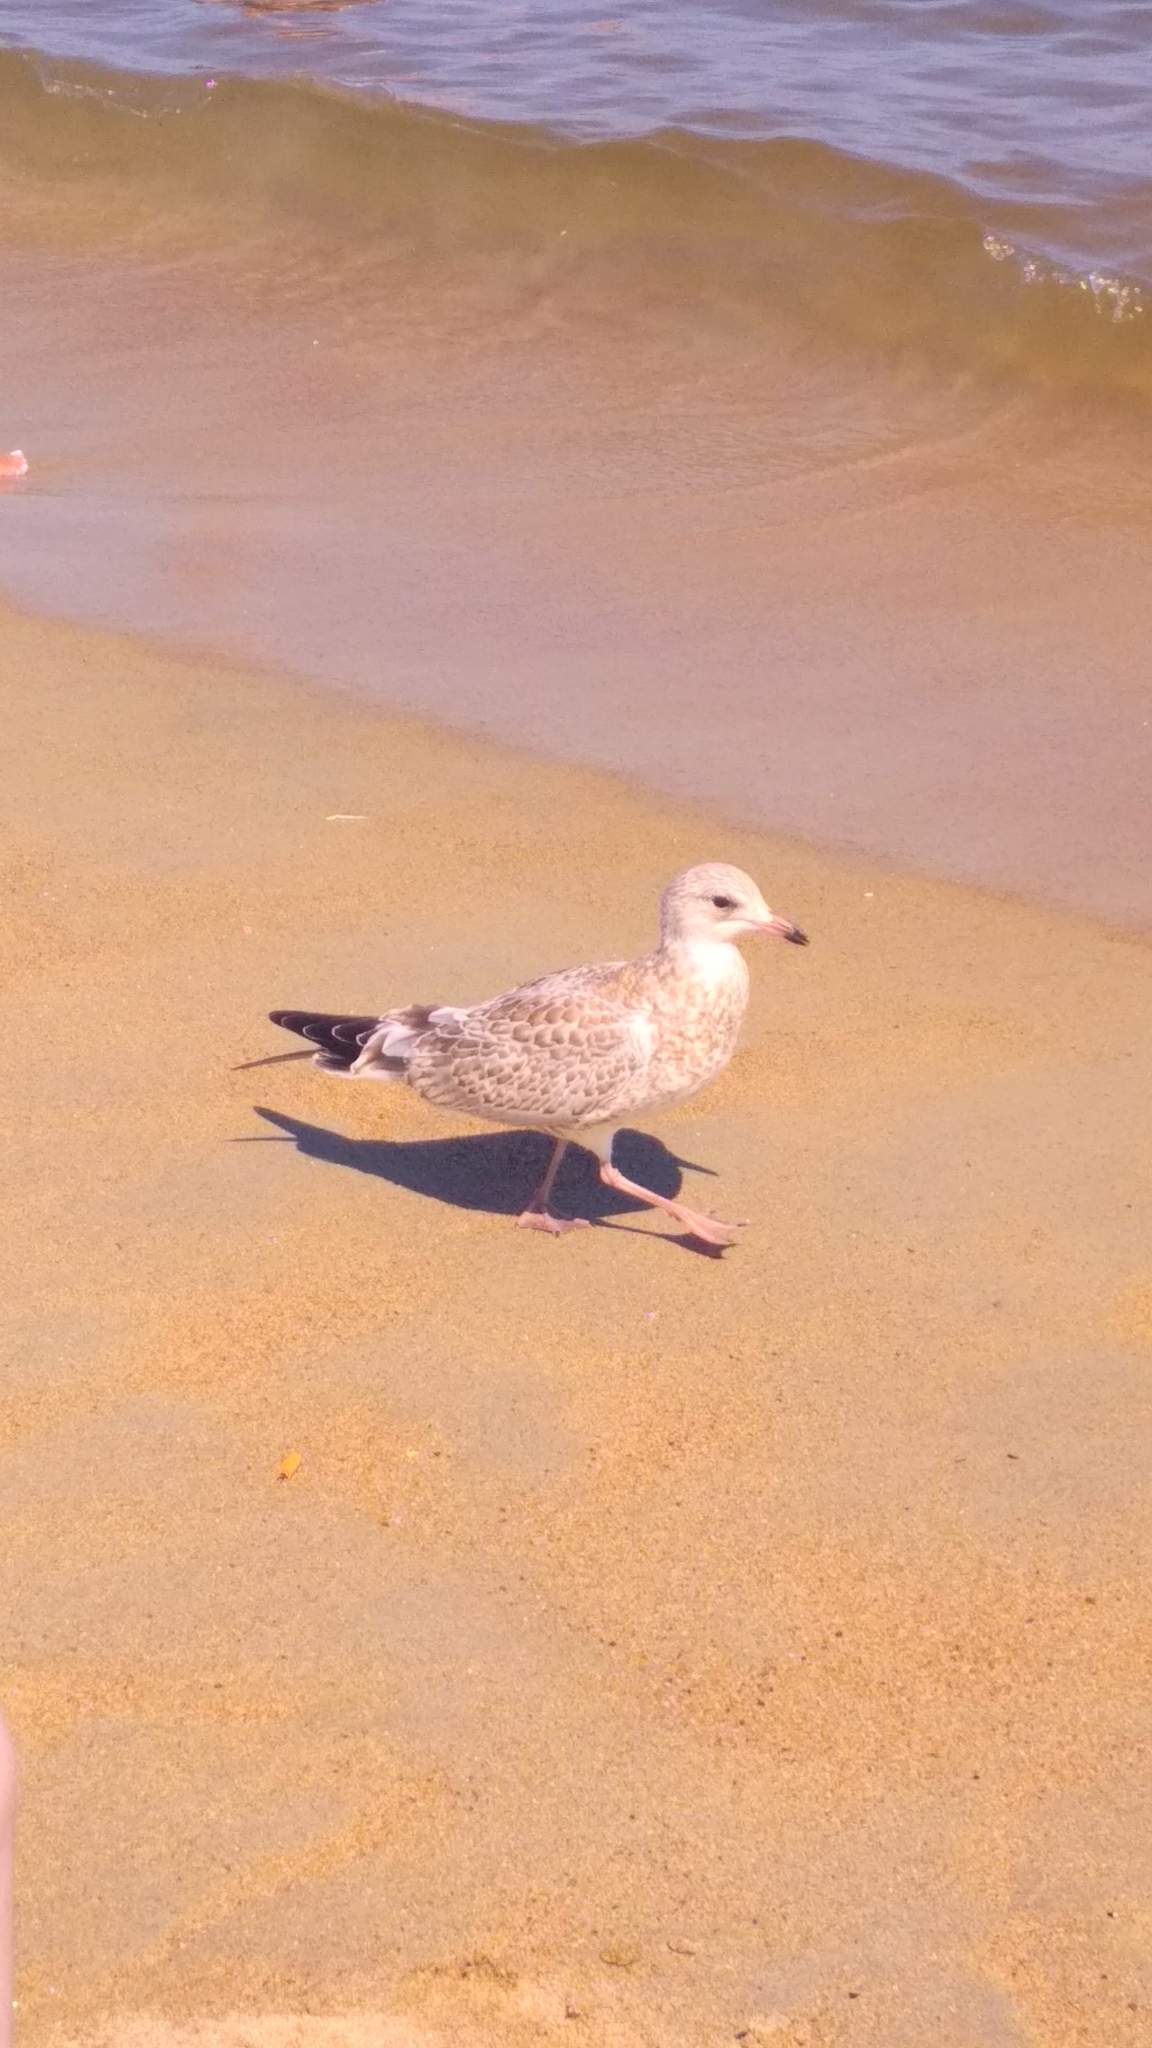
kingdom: Animalia
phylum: Chordata
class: Aves
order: Charadriiformes
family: Laridae
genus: Larus
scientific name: Larus argentatus
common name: Herring gull
